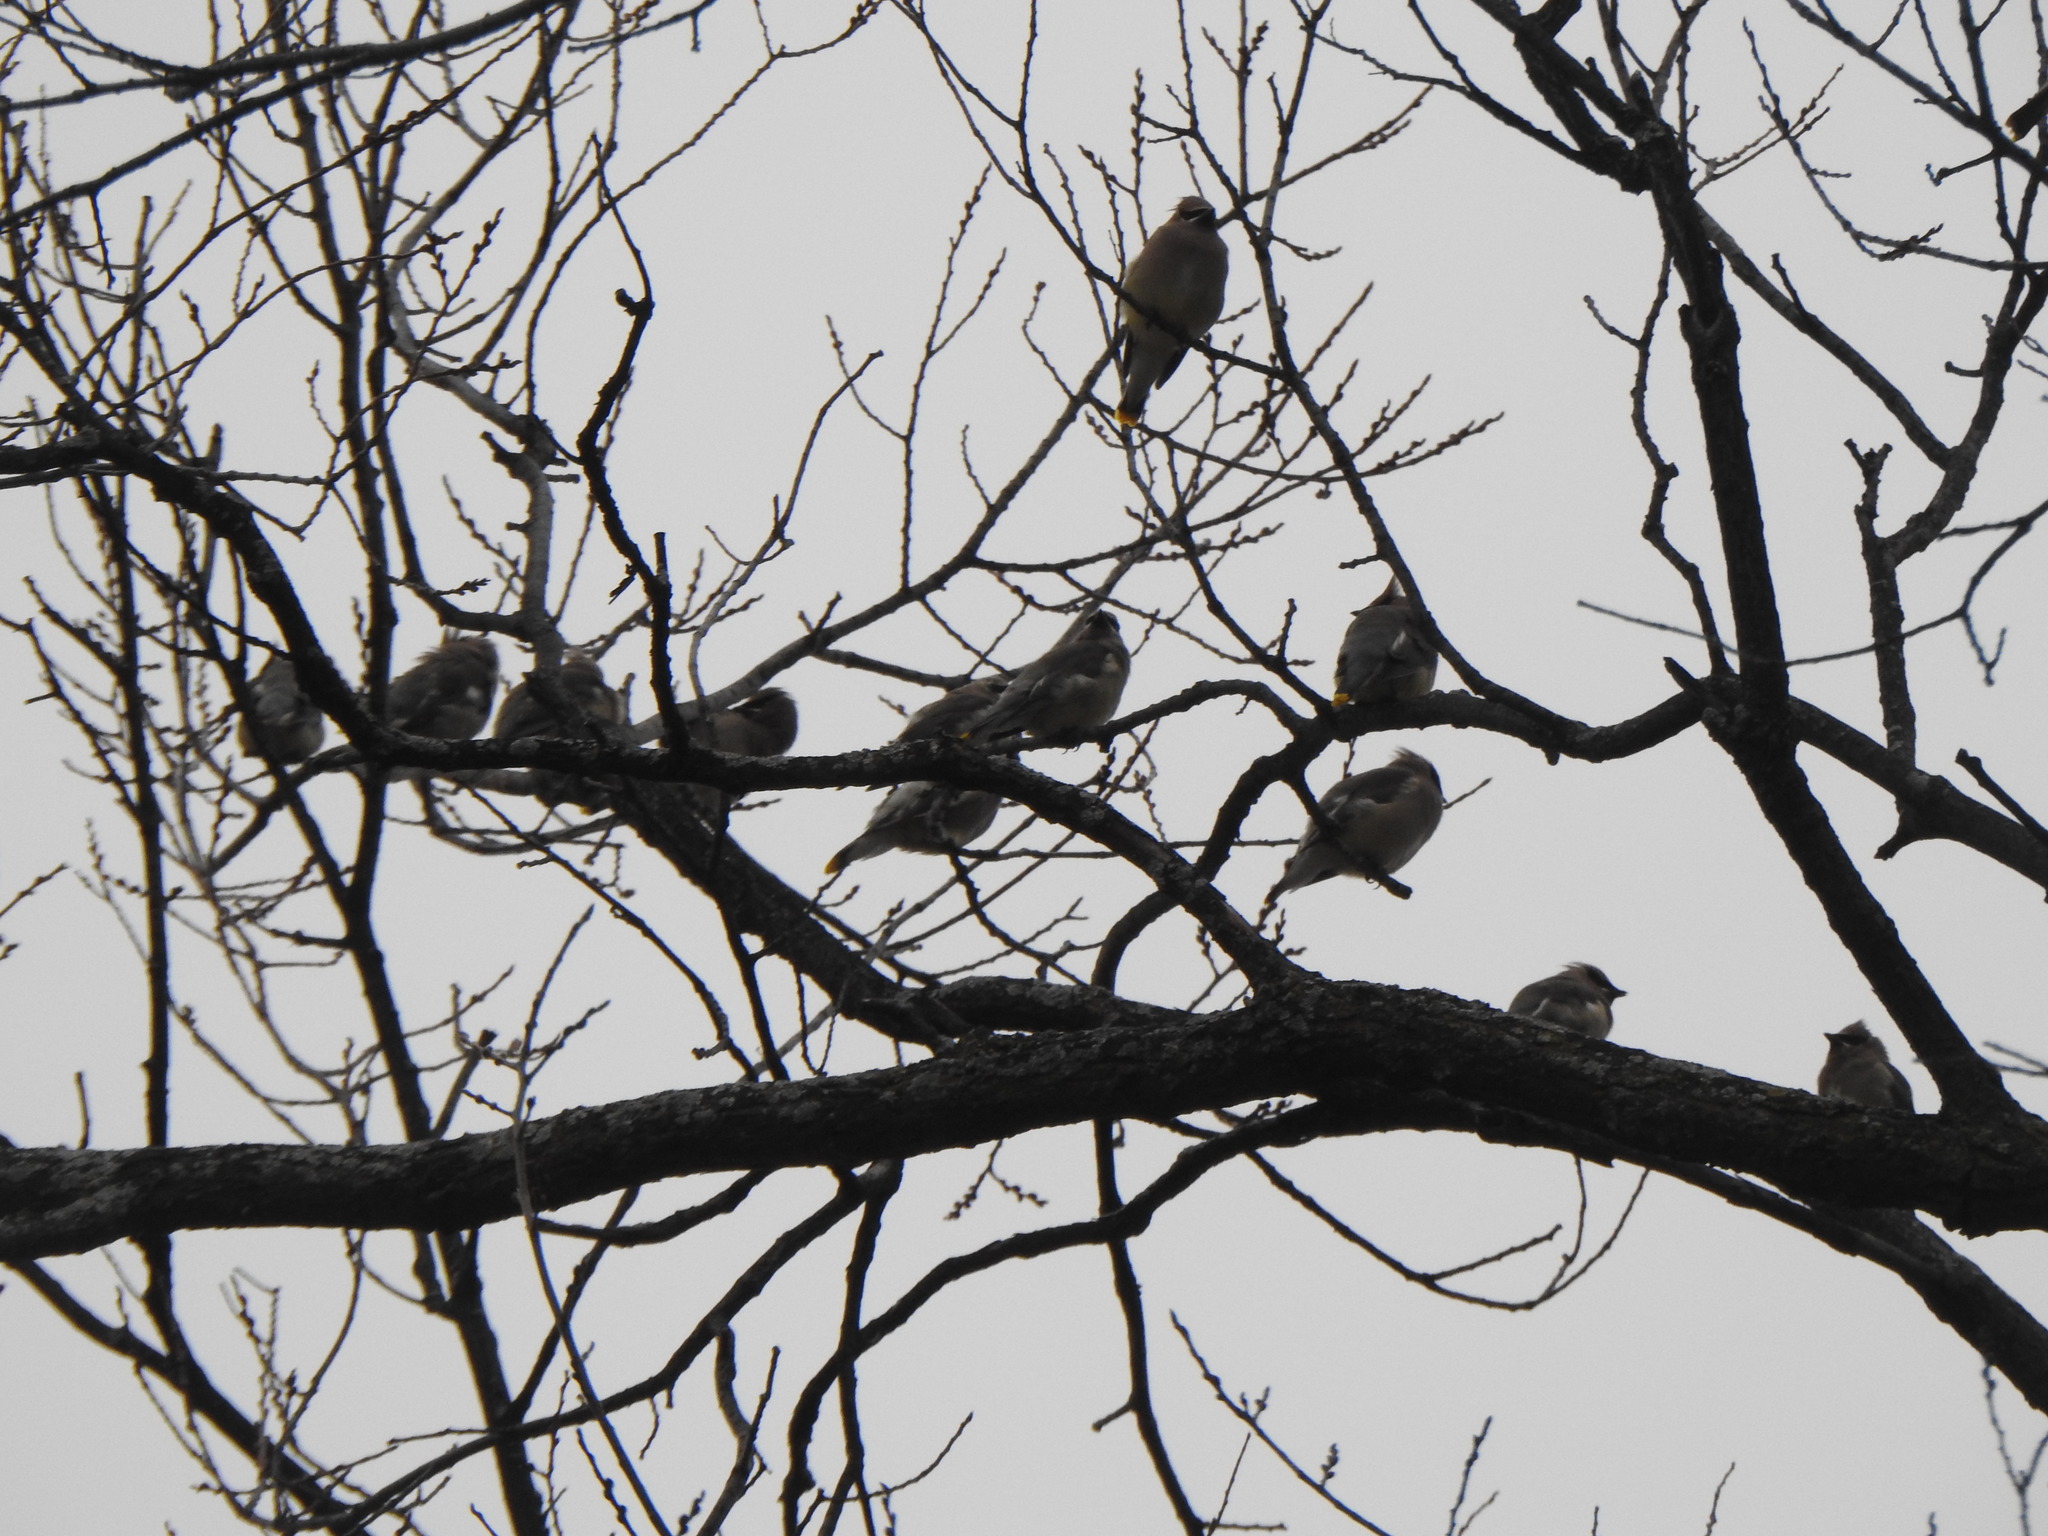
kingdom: Animalia
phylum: Chordata
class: Aves
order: Passeriformes
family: Bombycillidae
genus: Bombycilla
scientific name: Bombycilla cedrorum
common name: Cedar waxwing
